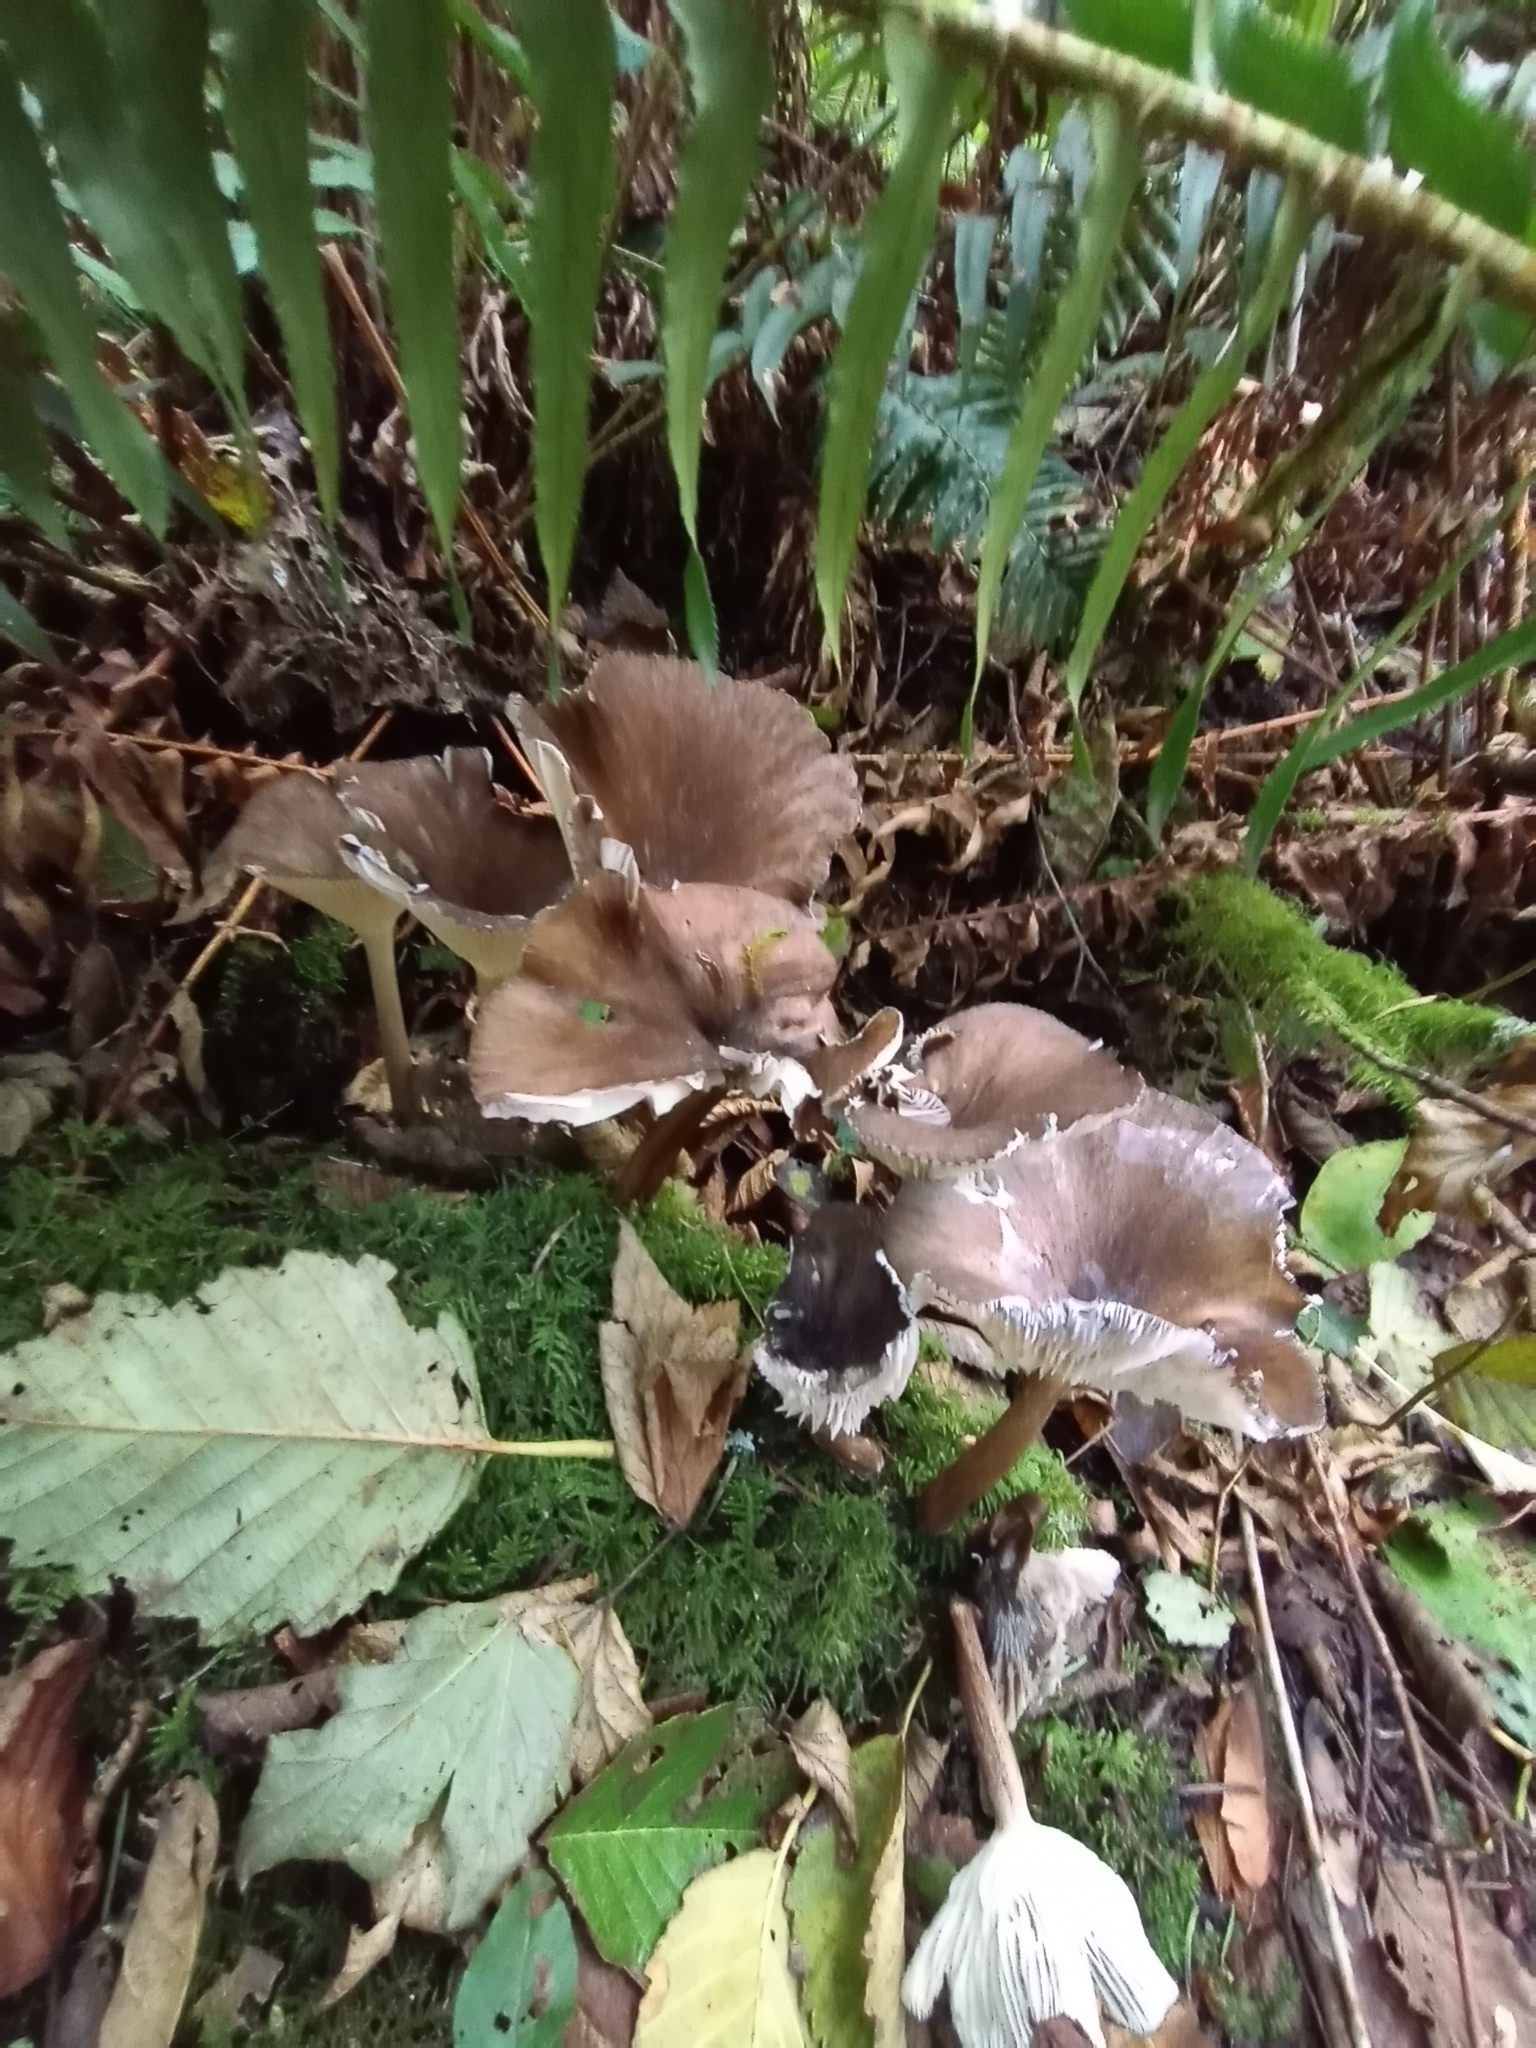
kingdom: Fungi
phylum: Basidiomycota
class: Agaricomycetes
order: Agaricales
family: Marasmiaceae
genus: Gerronema
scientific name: Gerronema atrialbum
